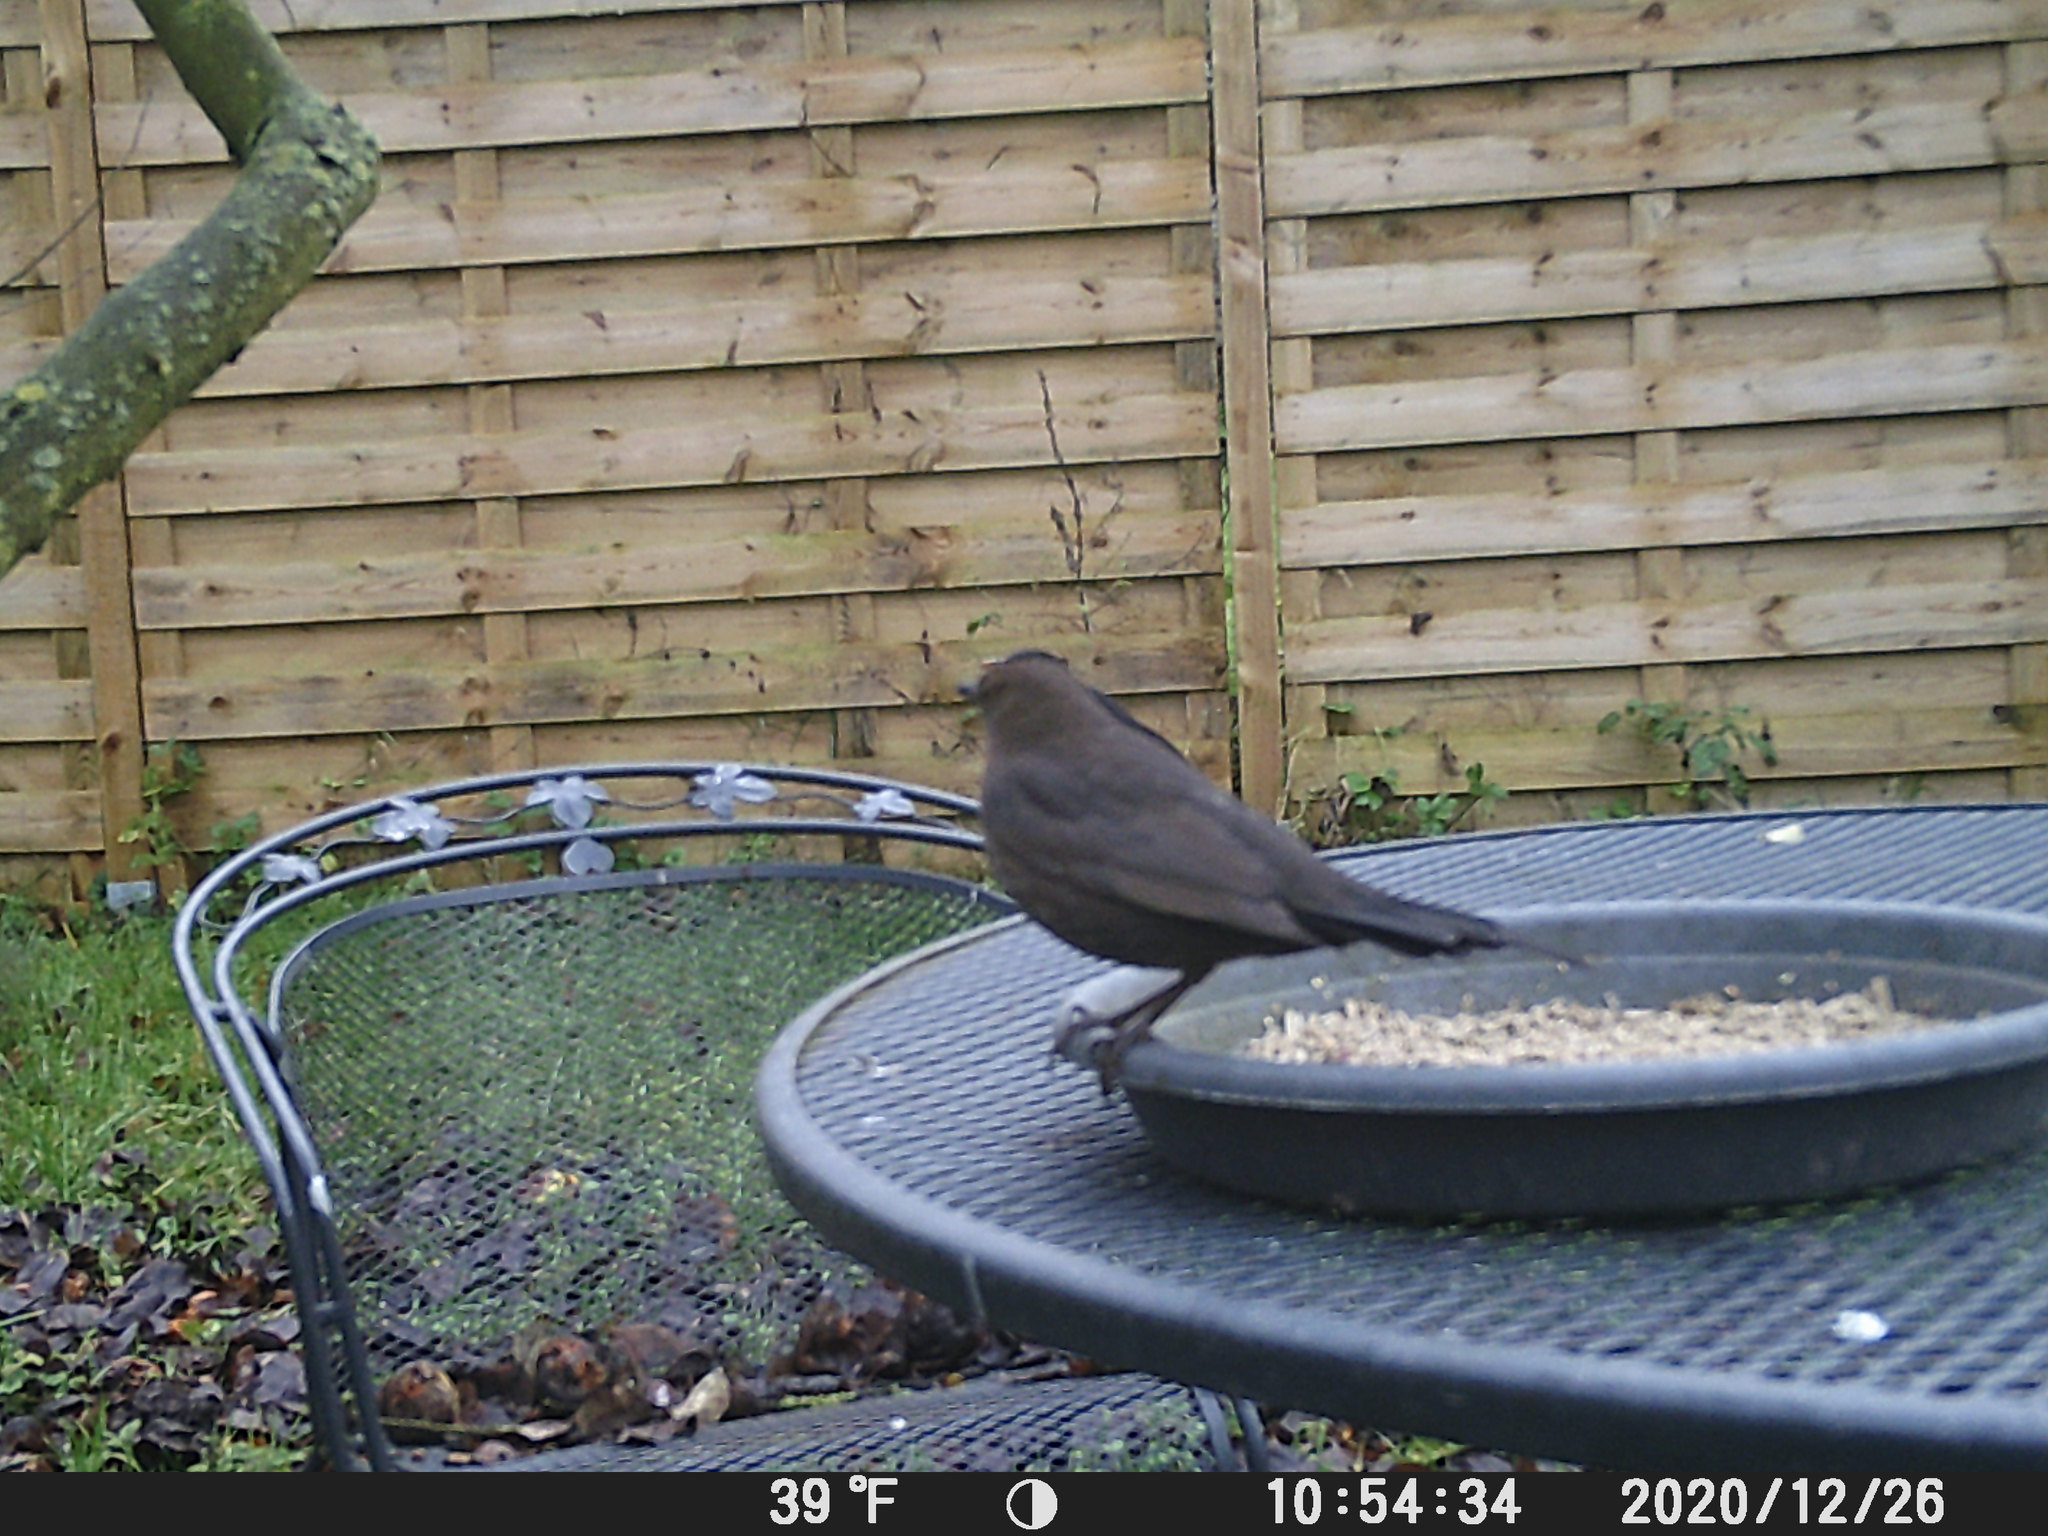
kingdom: Animalia
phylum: Chordata
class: Aves
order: Passeriformes
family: Turdidae
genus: Turdus
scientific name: Turdus merula
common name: Common blackbird
